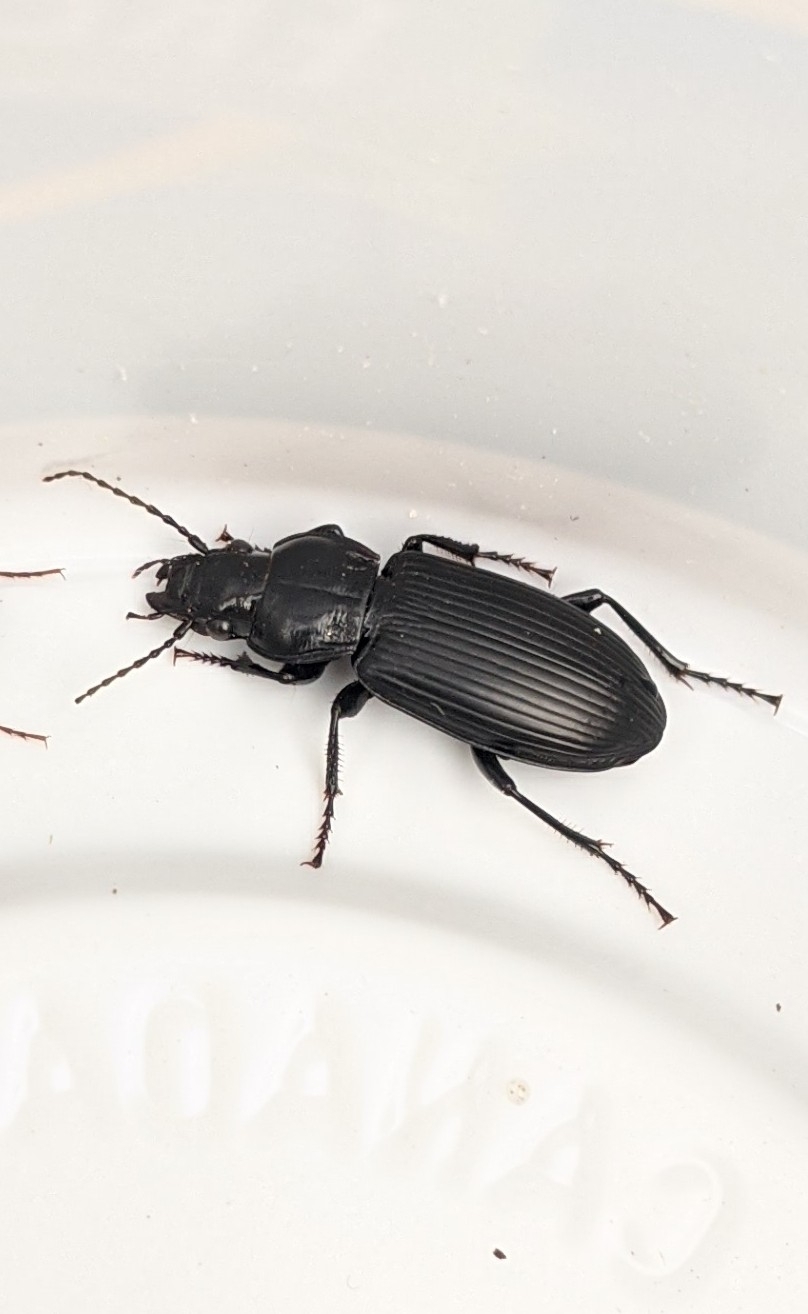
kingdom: Animalia
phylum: Arthropoda
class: Insecta
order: Coleoptera
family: Carabidae
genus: Pterostichus
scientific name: Pterostichus melanarius
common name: European dark harp ground beetle
